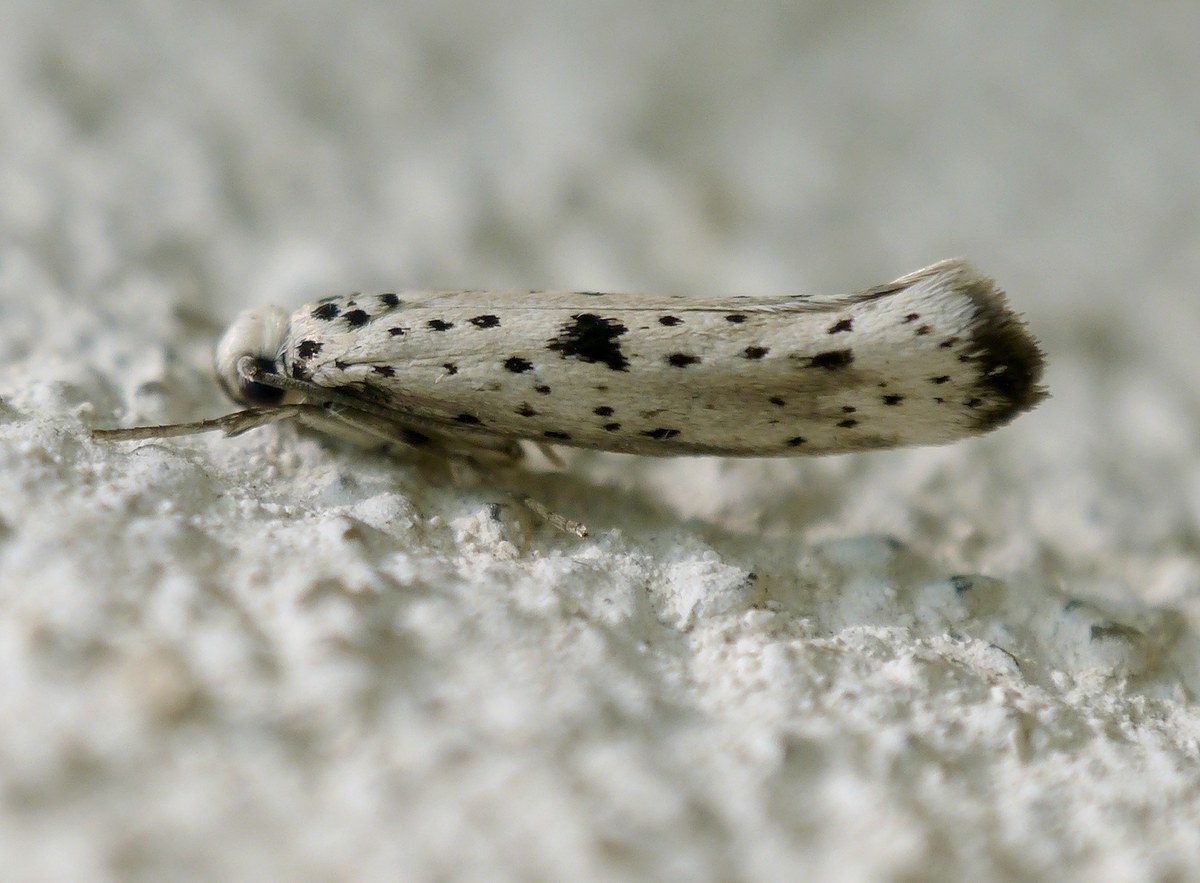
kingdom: Animalia
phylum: Arthropoda
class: Insecta
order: Lepidoptera
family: Yponomeutidae
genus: Yponomeuta
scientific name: Yponomeuta plumbella
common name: Black-tipped ermine
